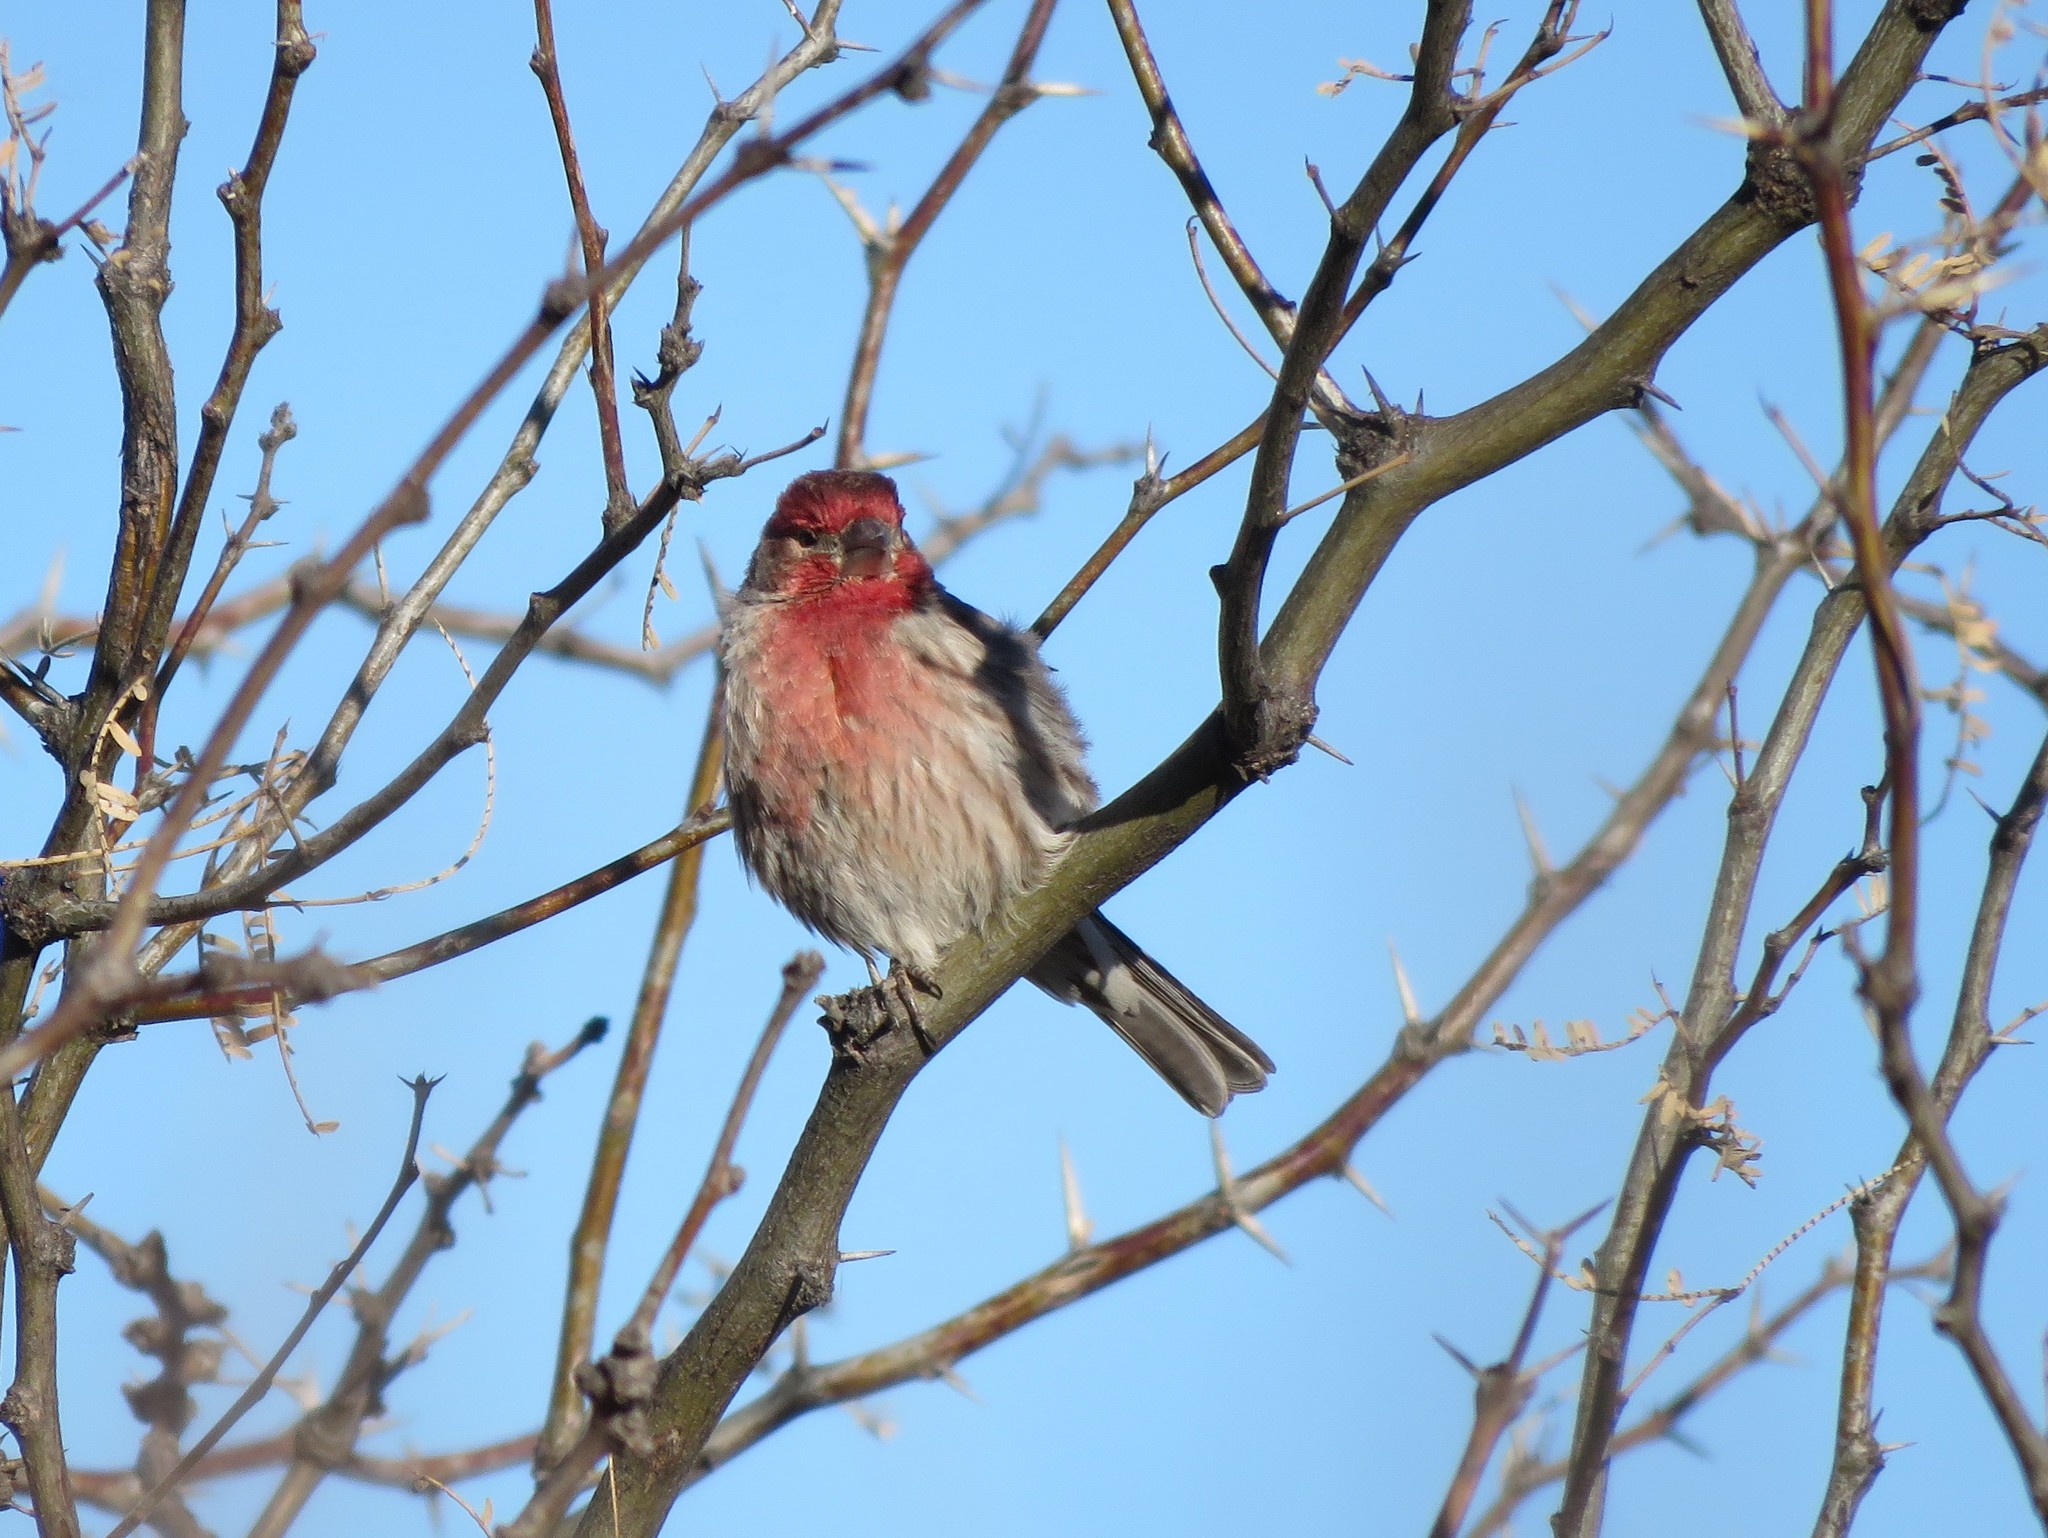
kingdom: Animalia
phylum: Chordata
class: Aves
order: Passeriformes
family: Fringillidae
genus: Haemorhous
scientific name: Haemorhous mexicanus
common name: House finch
